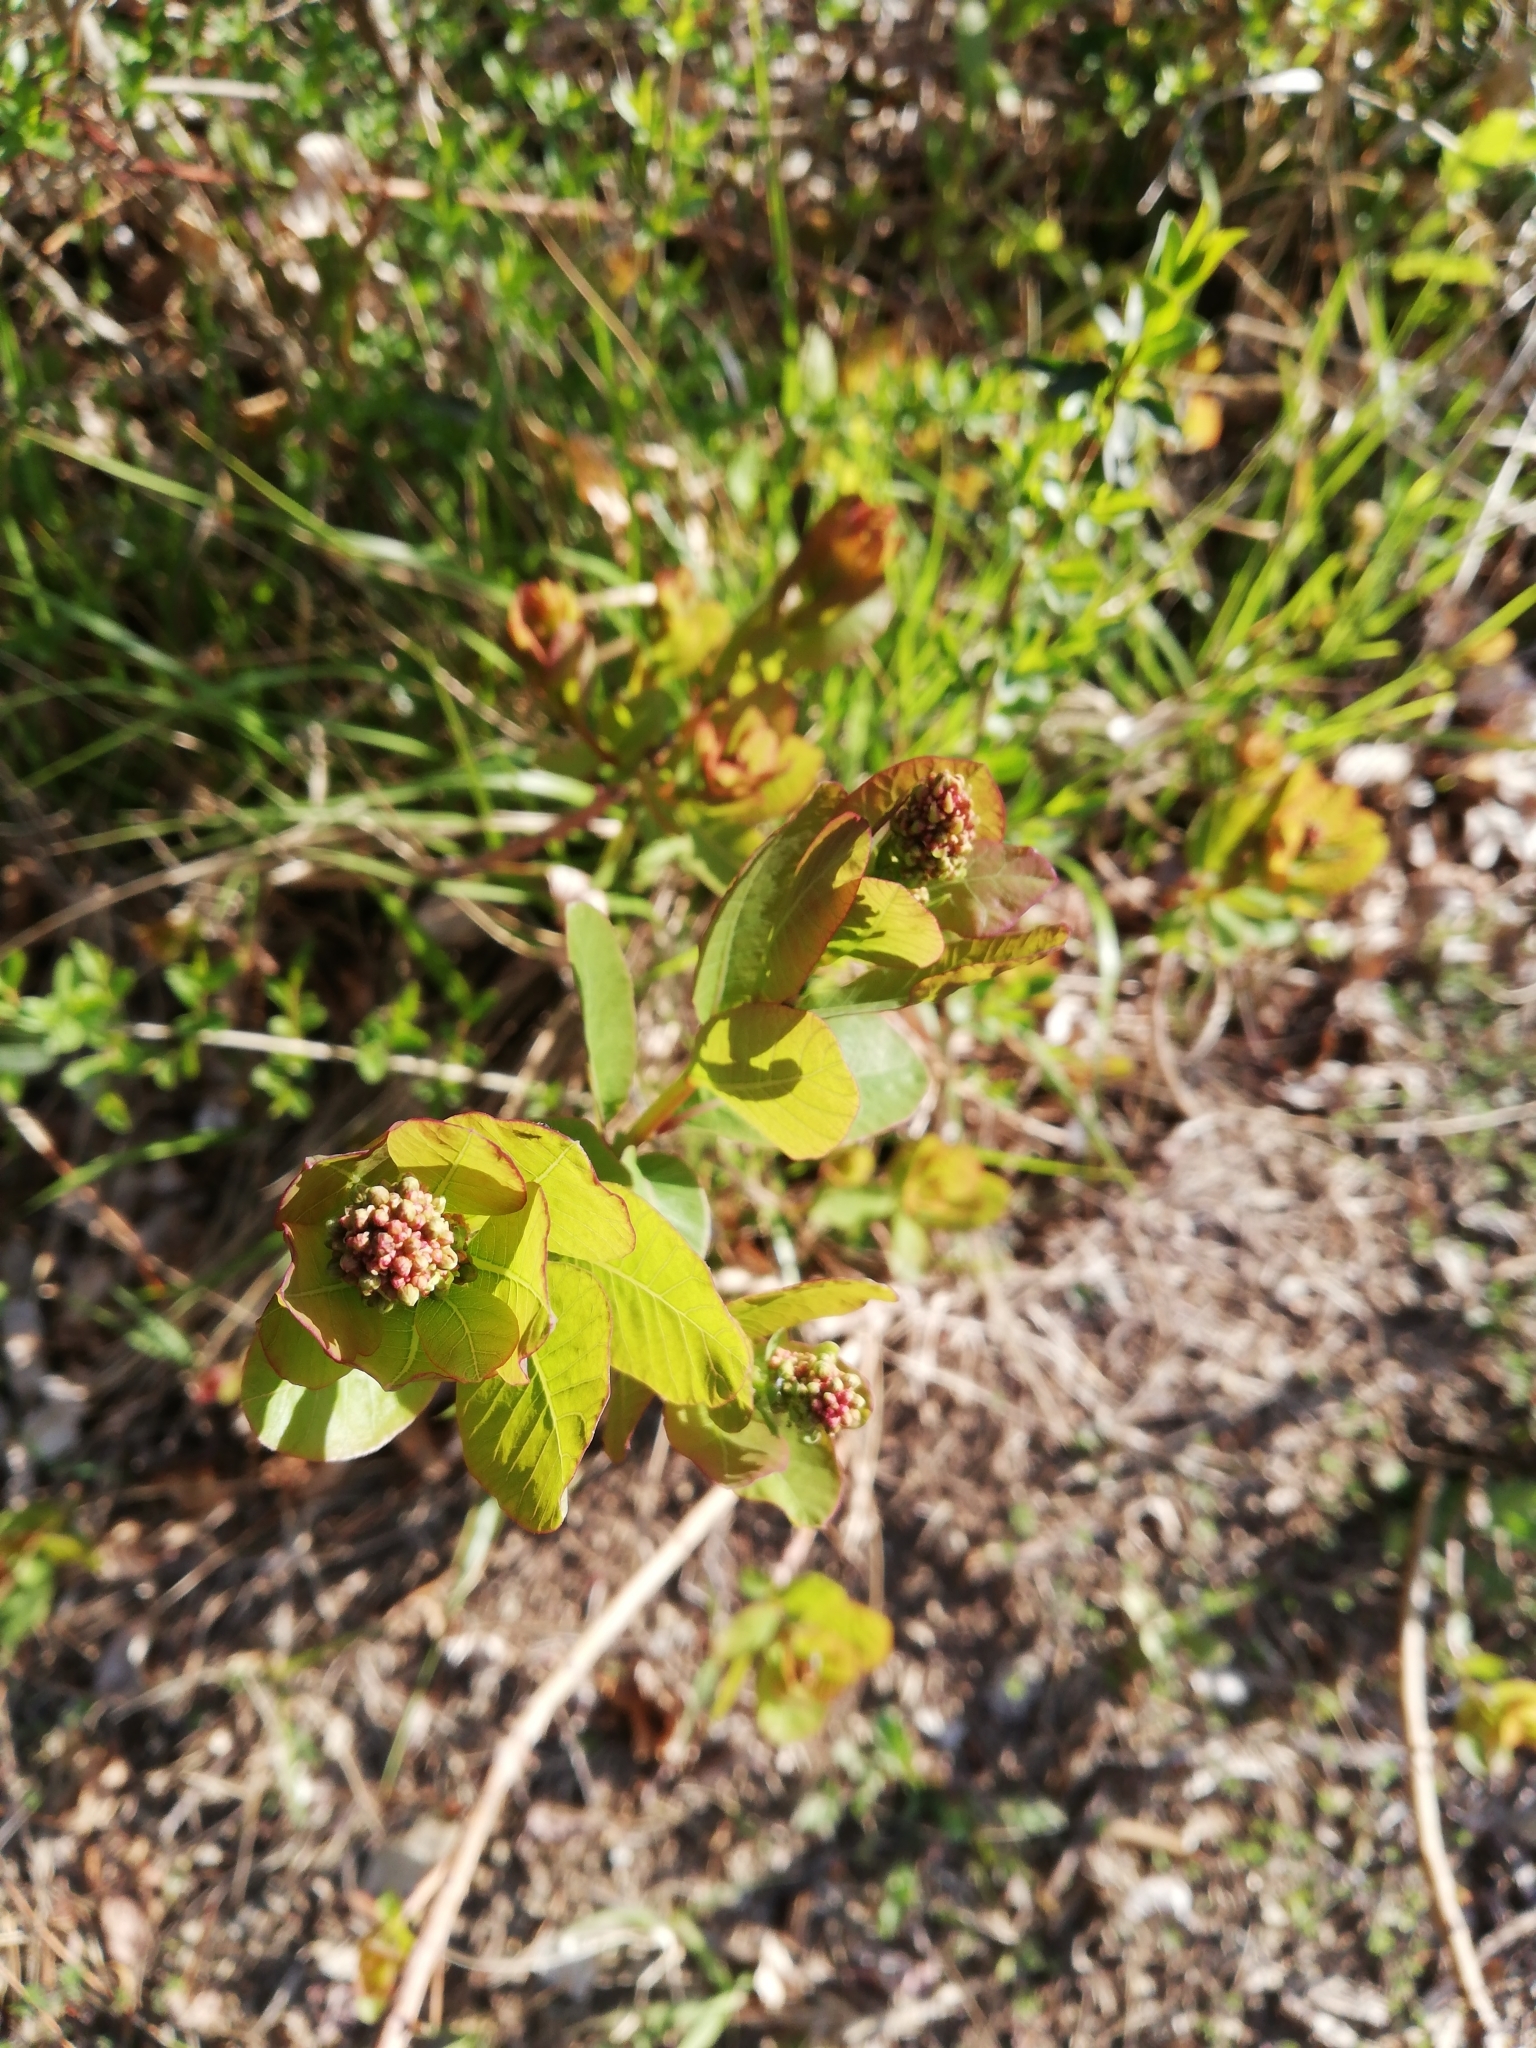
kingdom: Plantae
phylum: Tracheophyta
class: Magnoliopsida
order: Sapindales
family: Anacardiaceae
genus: Cotinus
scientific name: Cotinus coggygria
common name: Smoke-tree
